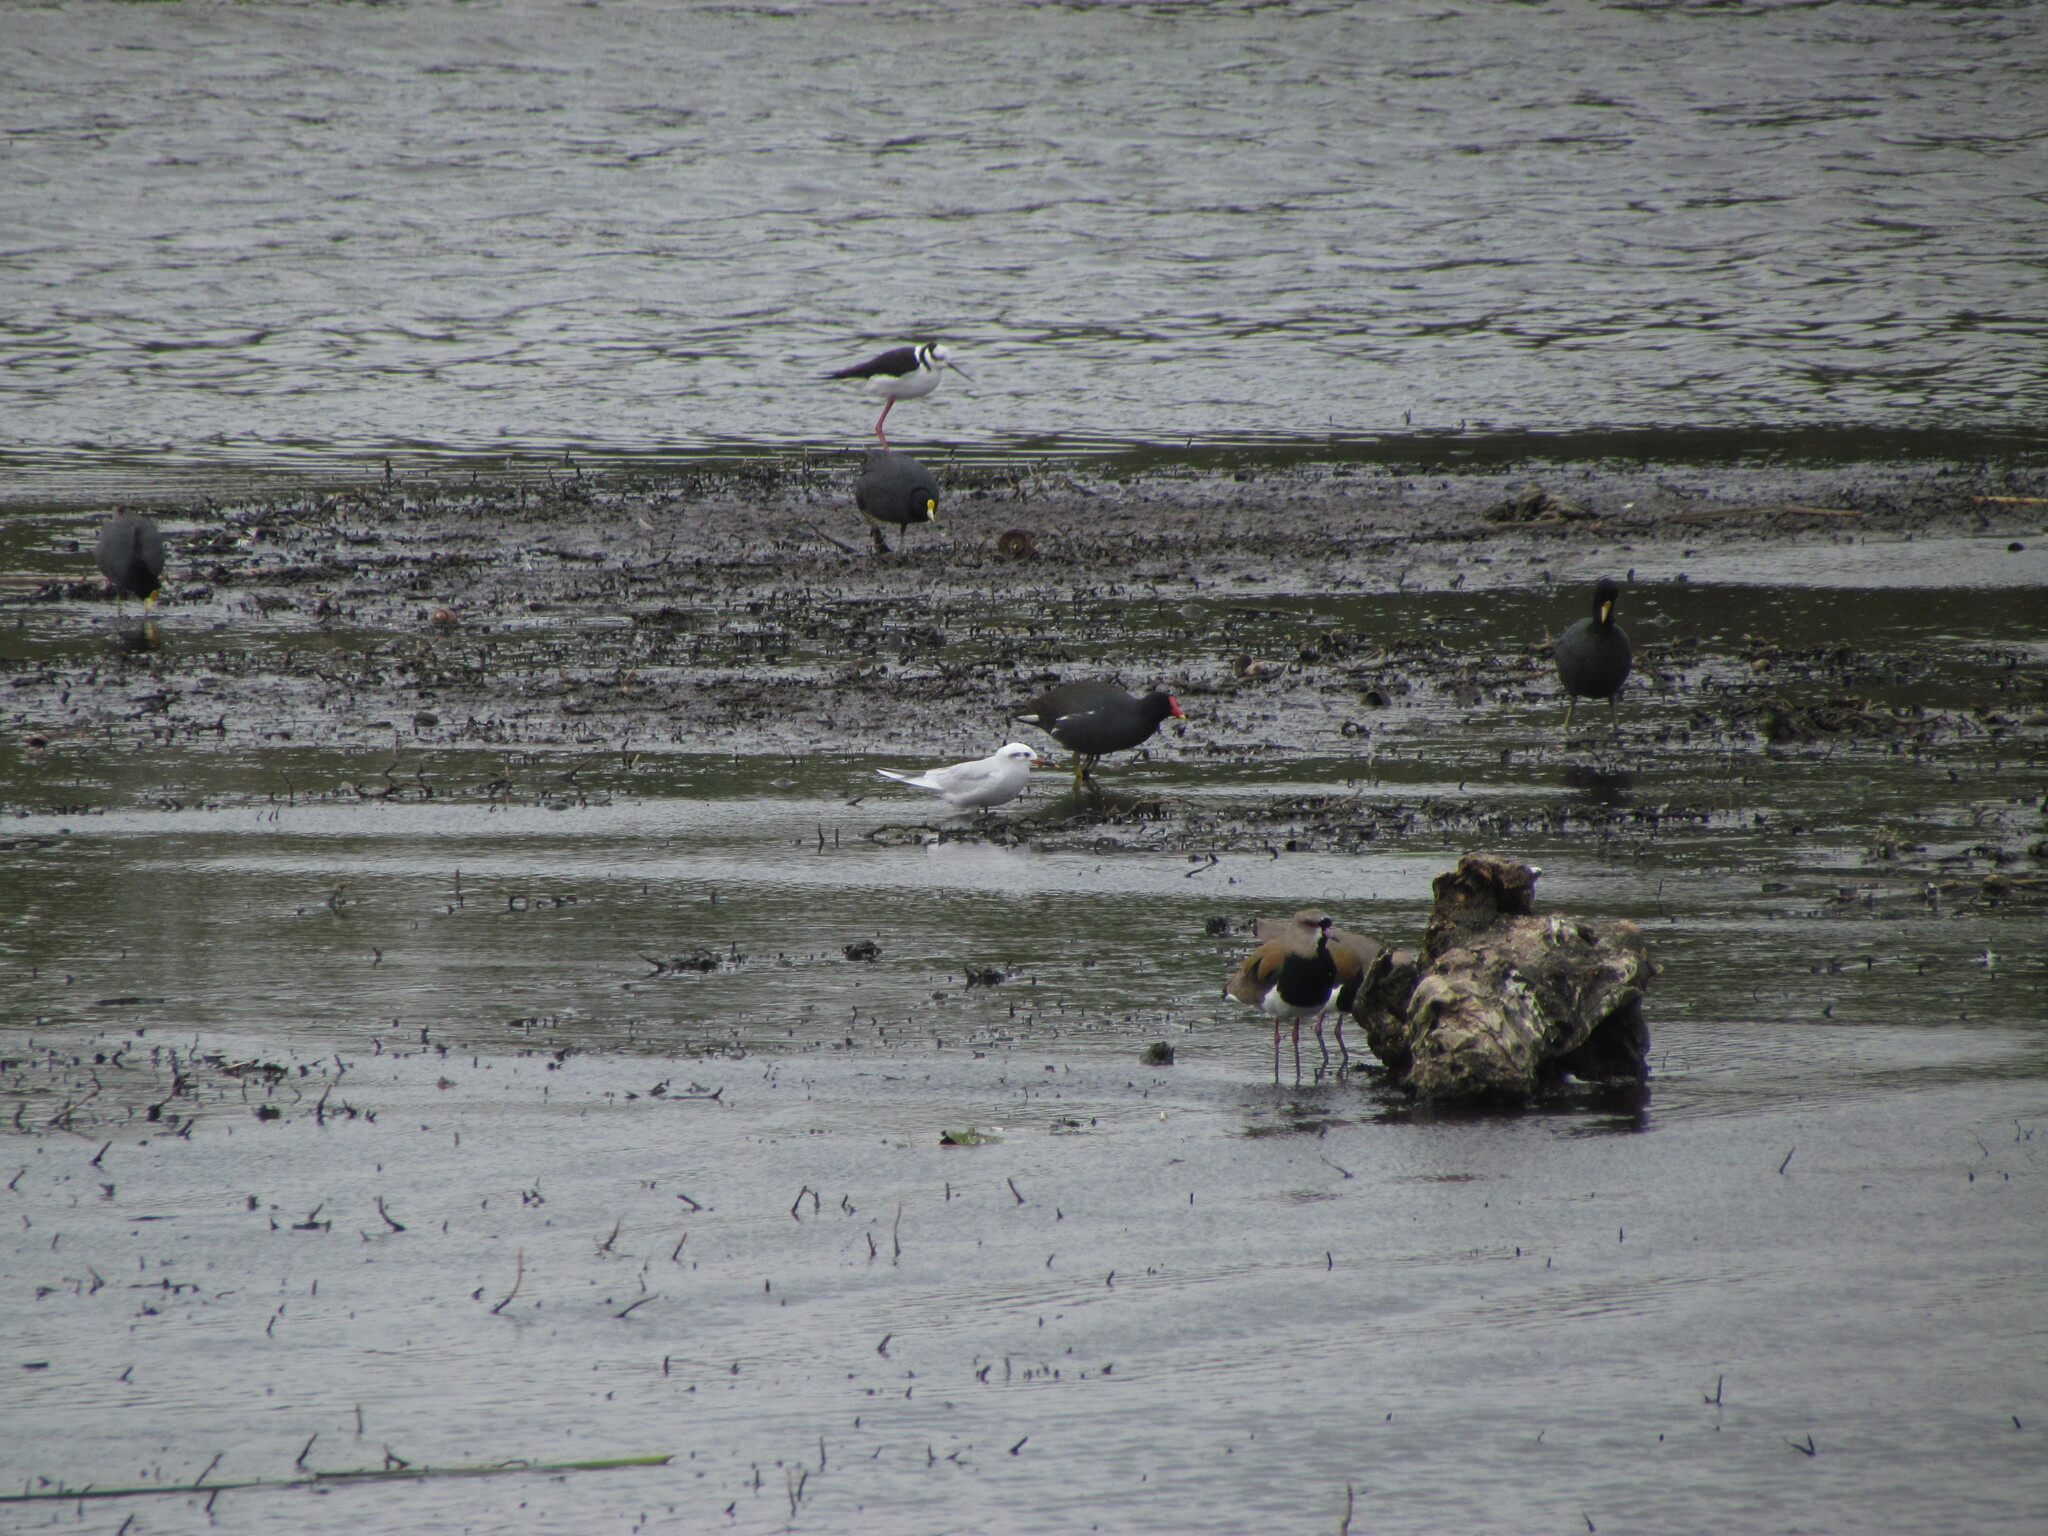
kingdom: Animalia
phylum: Chordata
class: Aves
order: Charadriiformes
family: Laridae
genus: Sterna
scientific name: Sterna trudeaui
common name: Snowy-crowned tern
